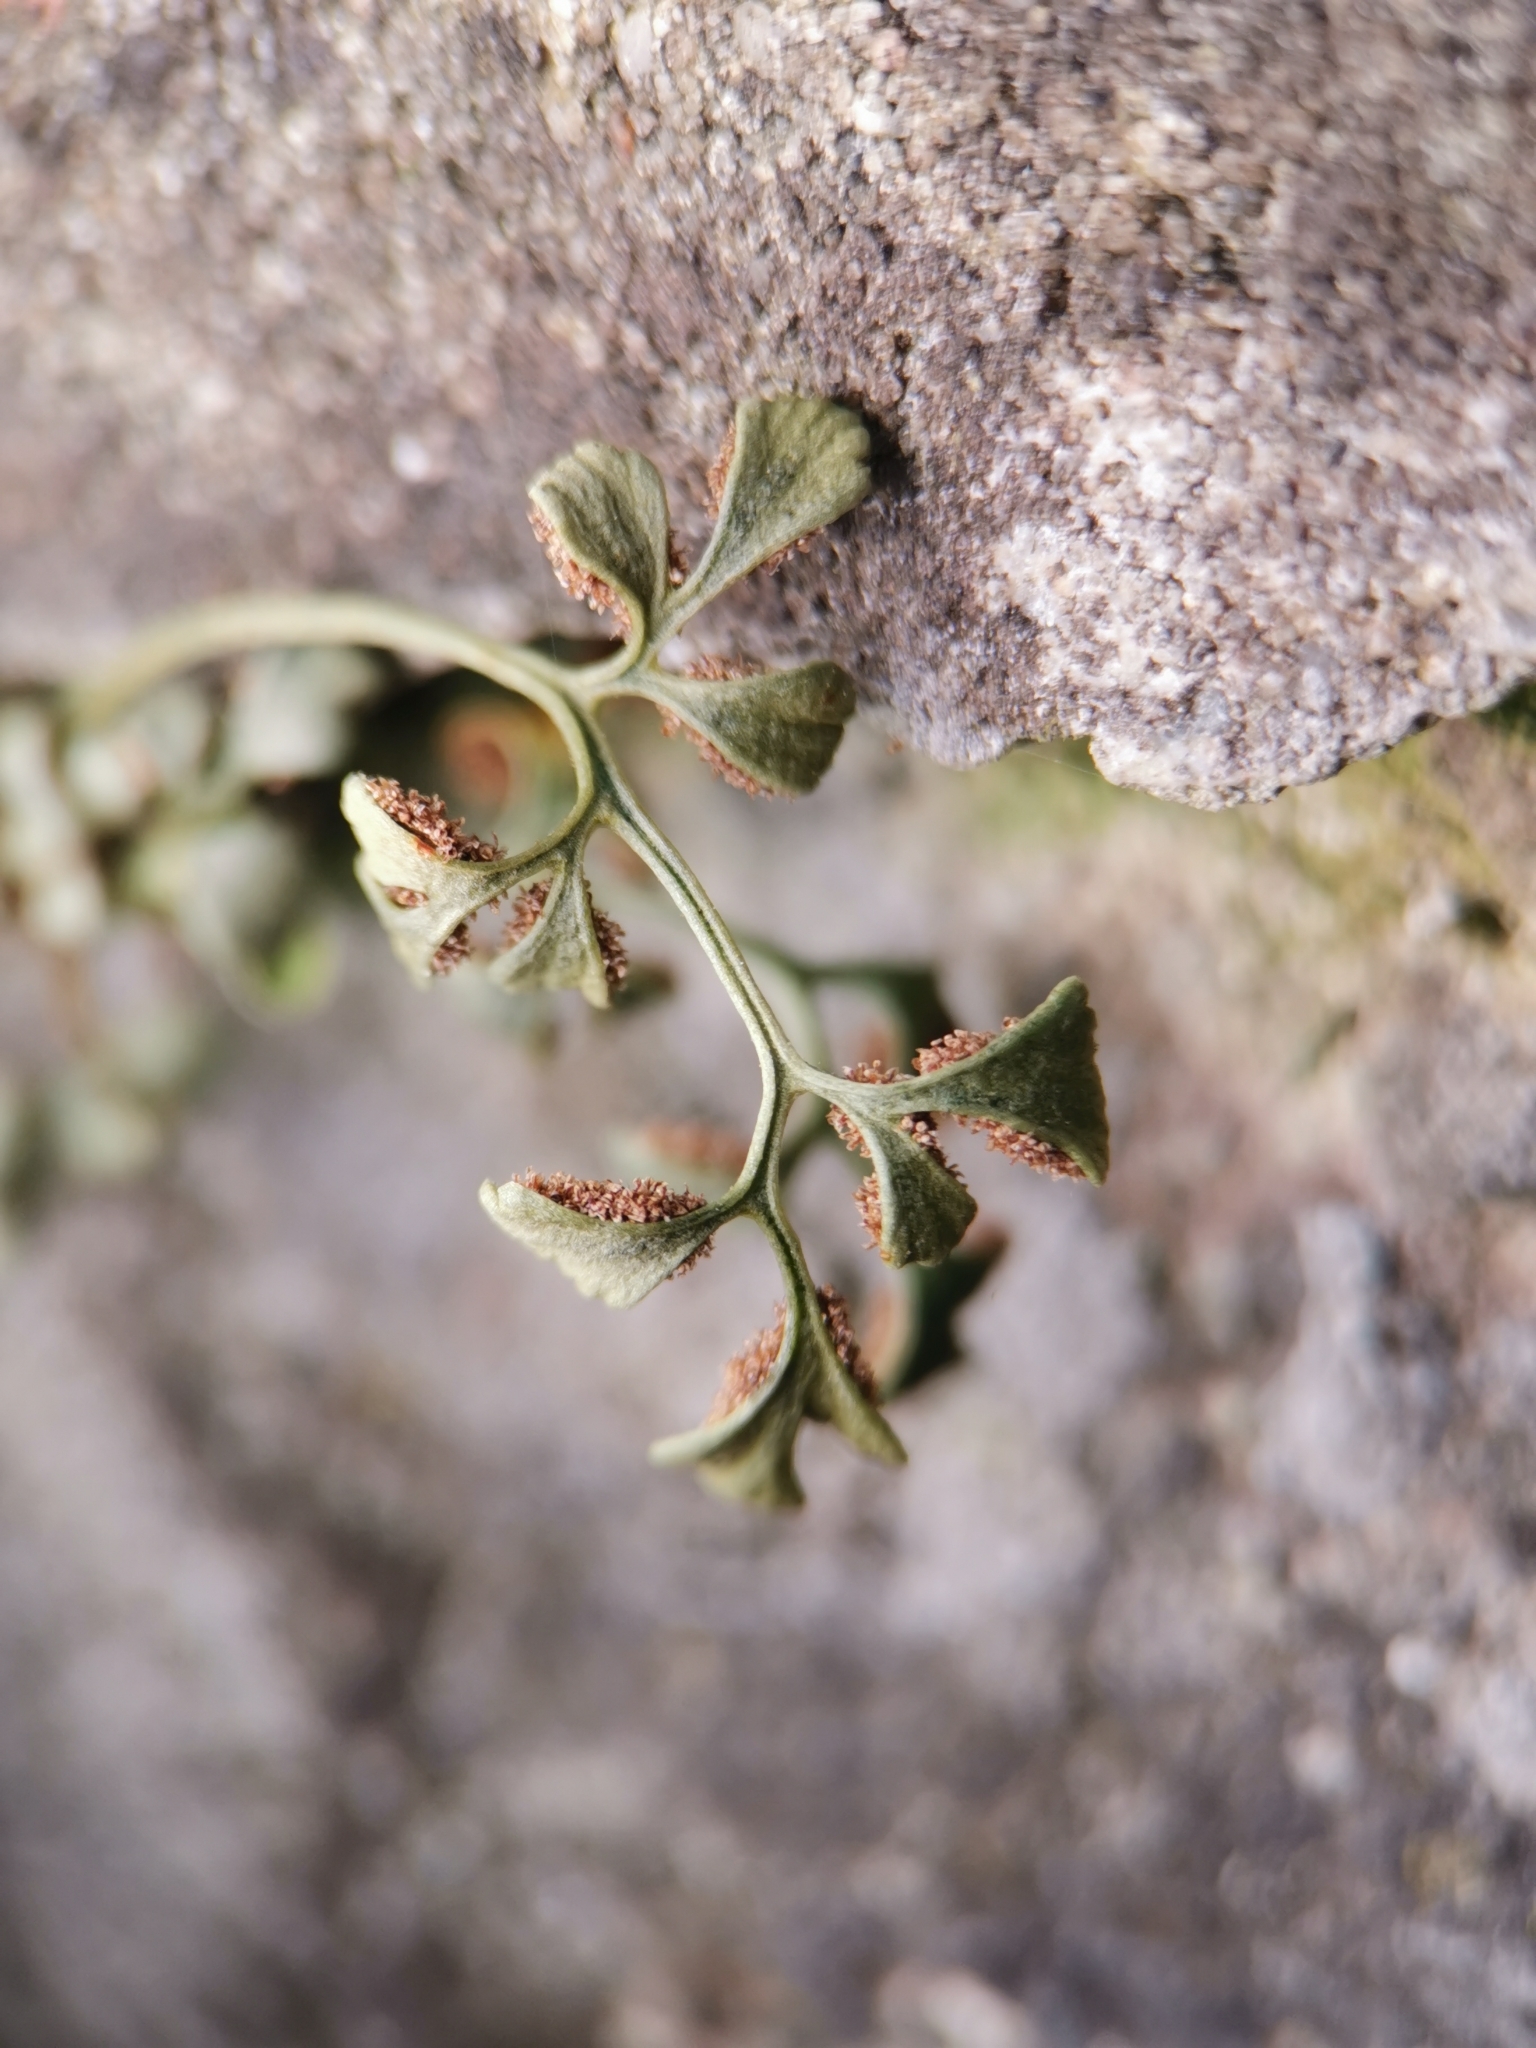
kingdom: Plantae
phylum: Tracheophyta
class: Polypodiopsida
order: Polypodiales
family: Aspleniaceae
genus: Asplenium
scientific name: Asplenium ruta-muraria
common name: Wall-rue
